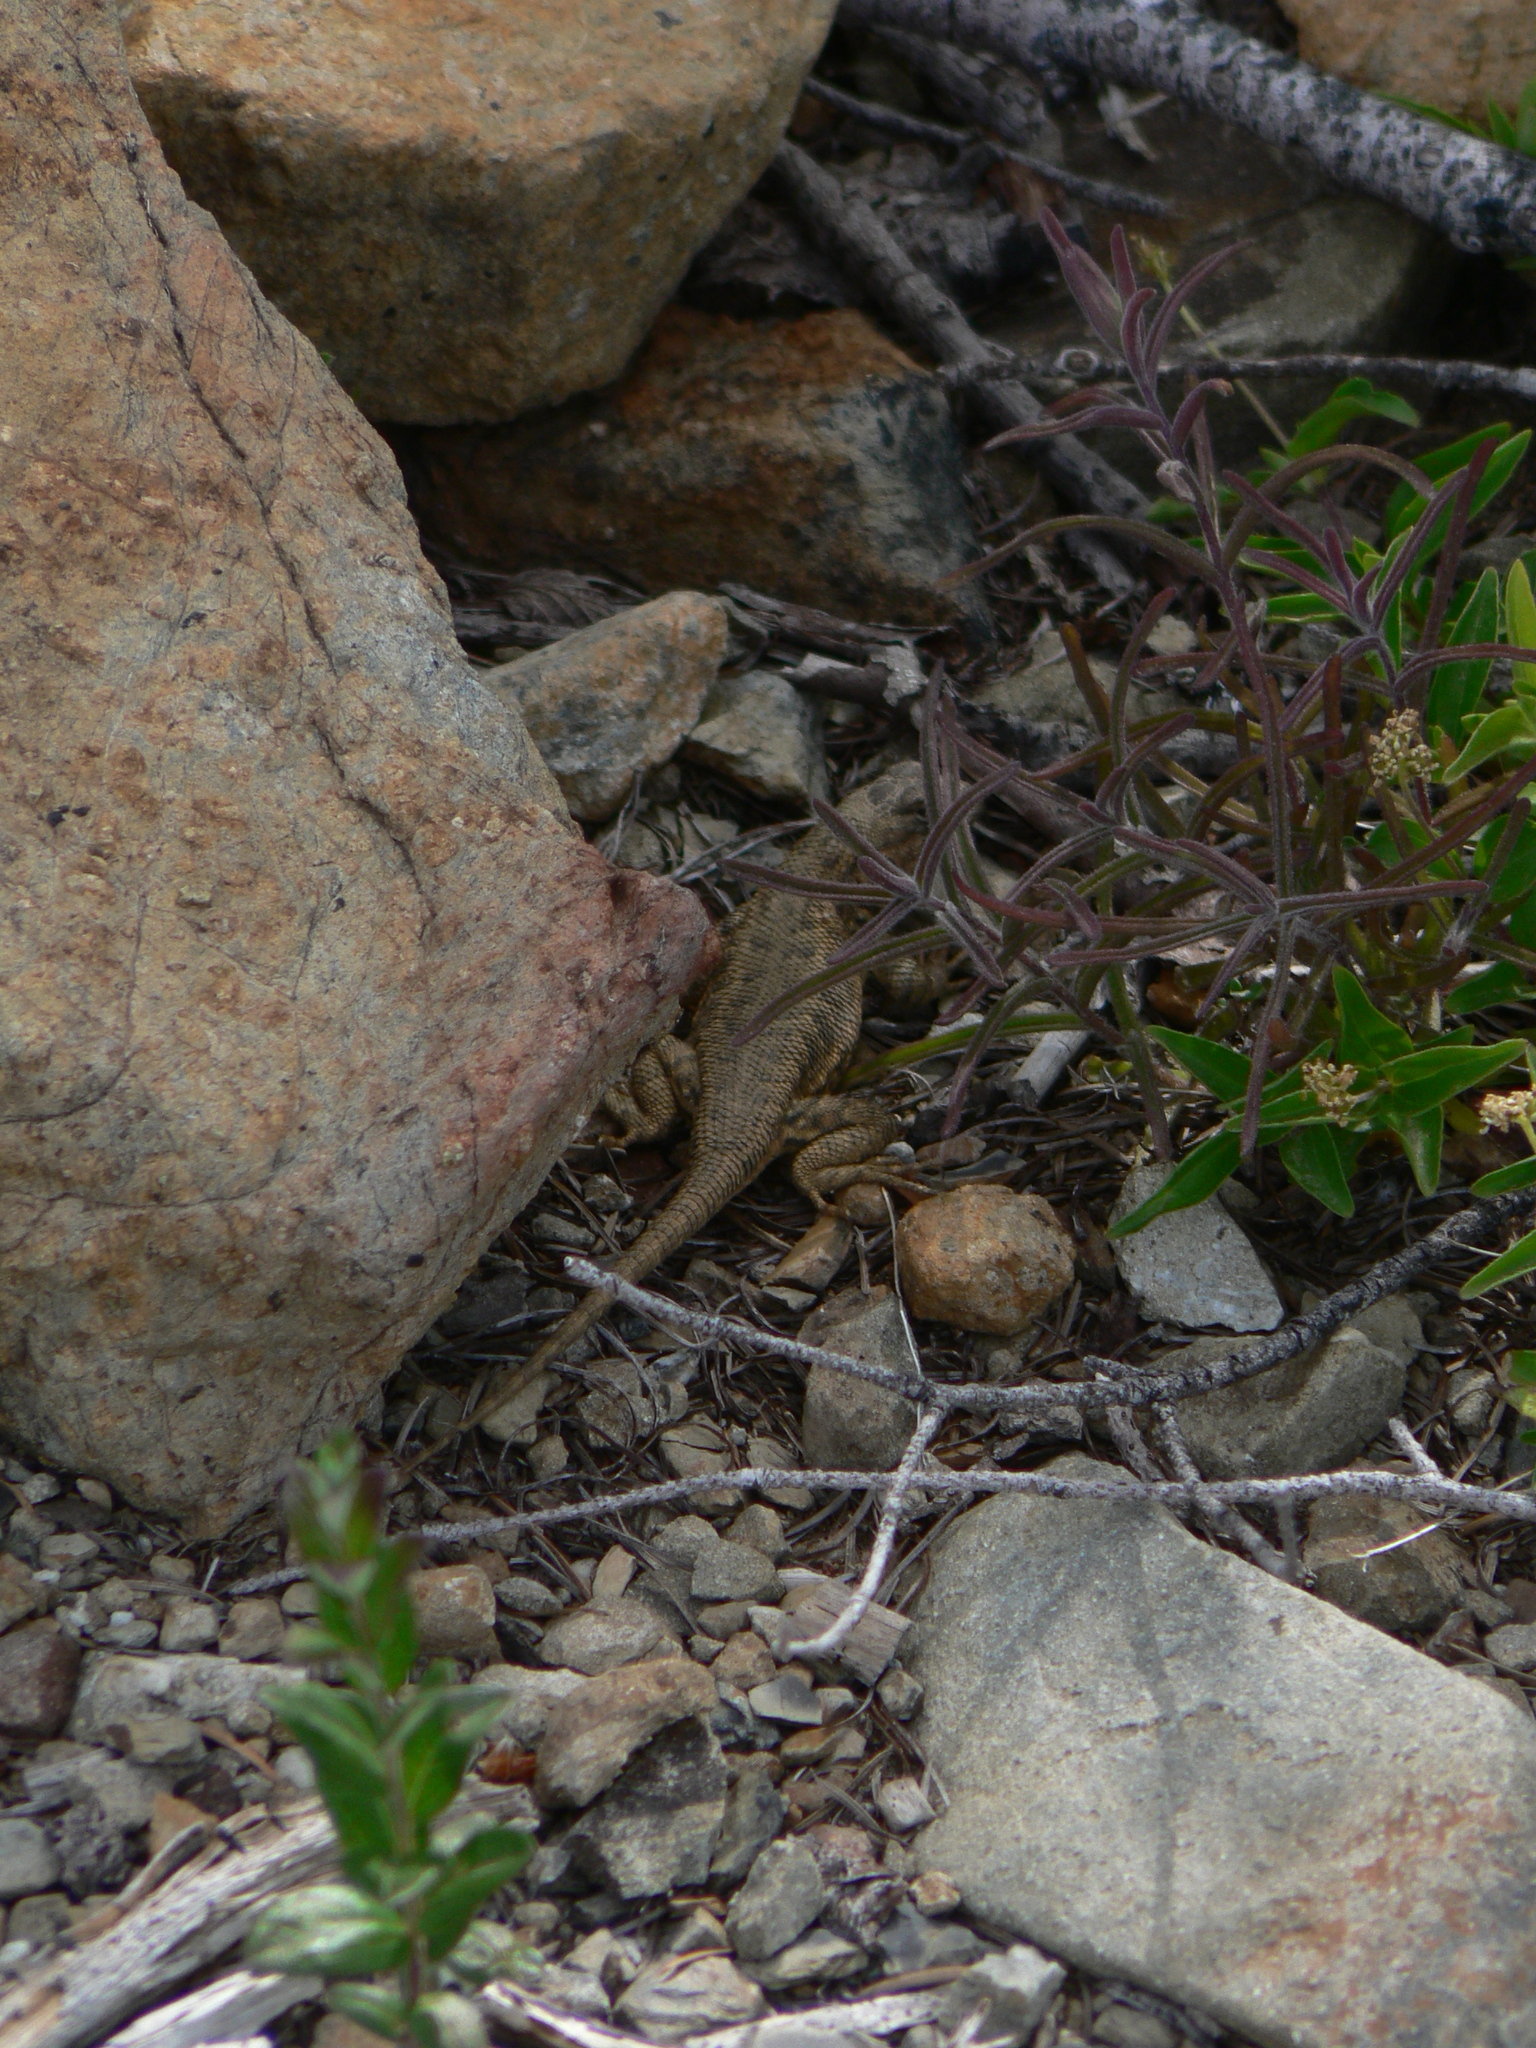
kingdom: Animalia
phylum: Chordata
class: Squamata
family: Phrynosomatidae
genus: Sceloporus
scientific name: Sceloporus graciosus
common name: Sagebrush lizard
